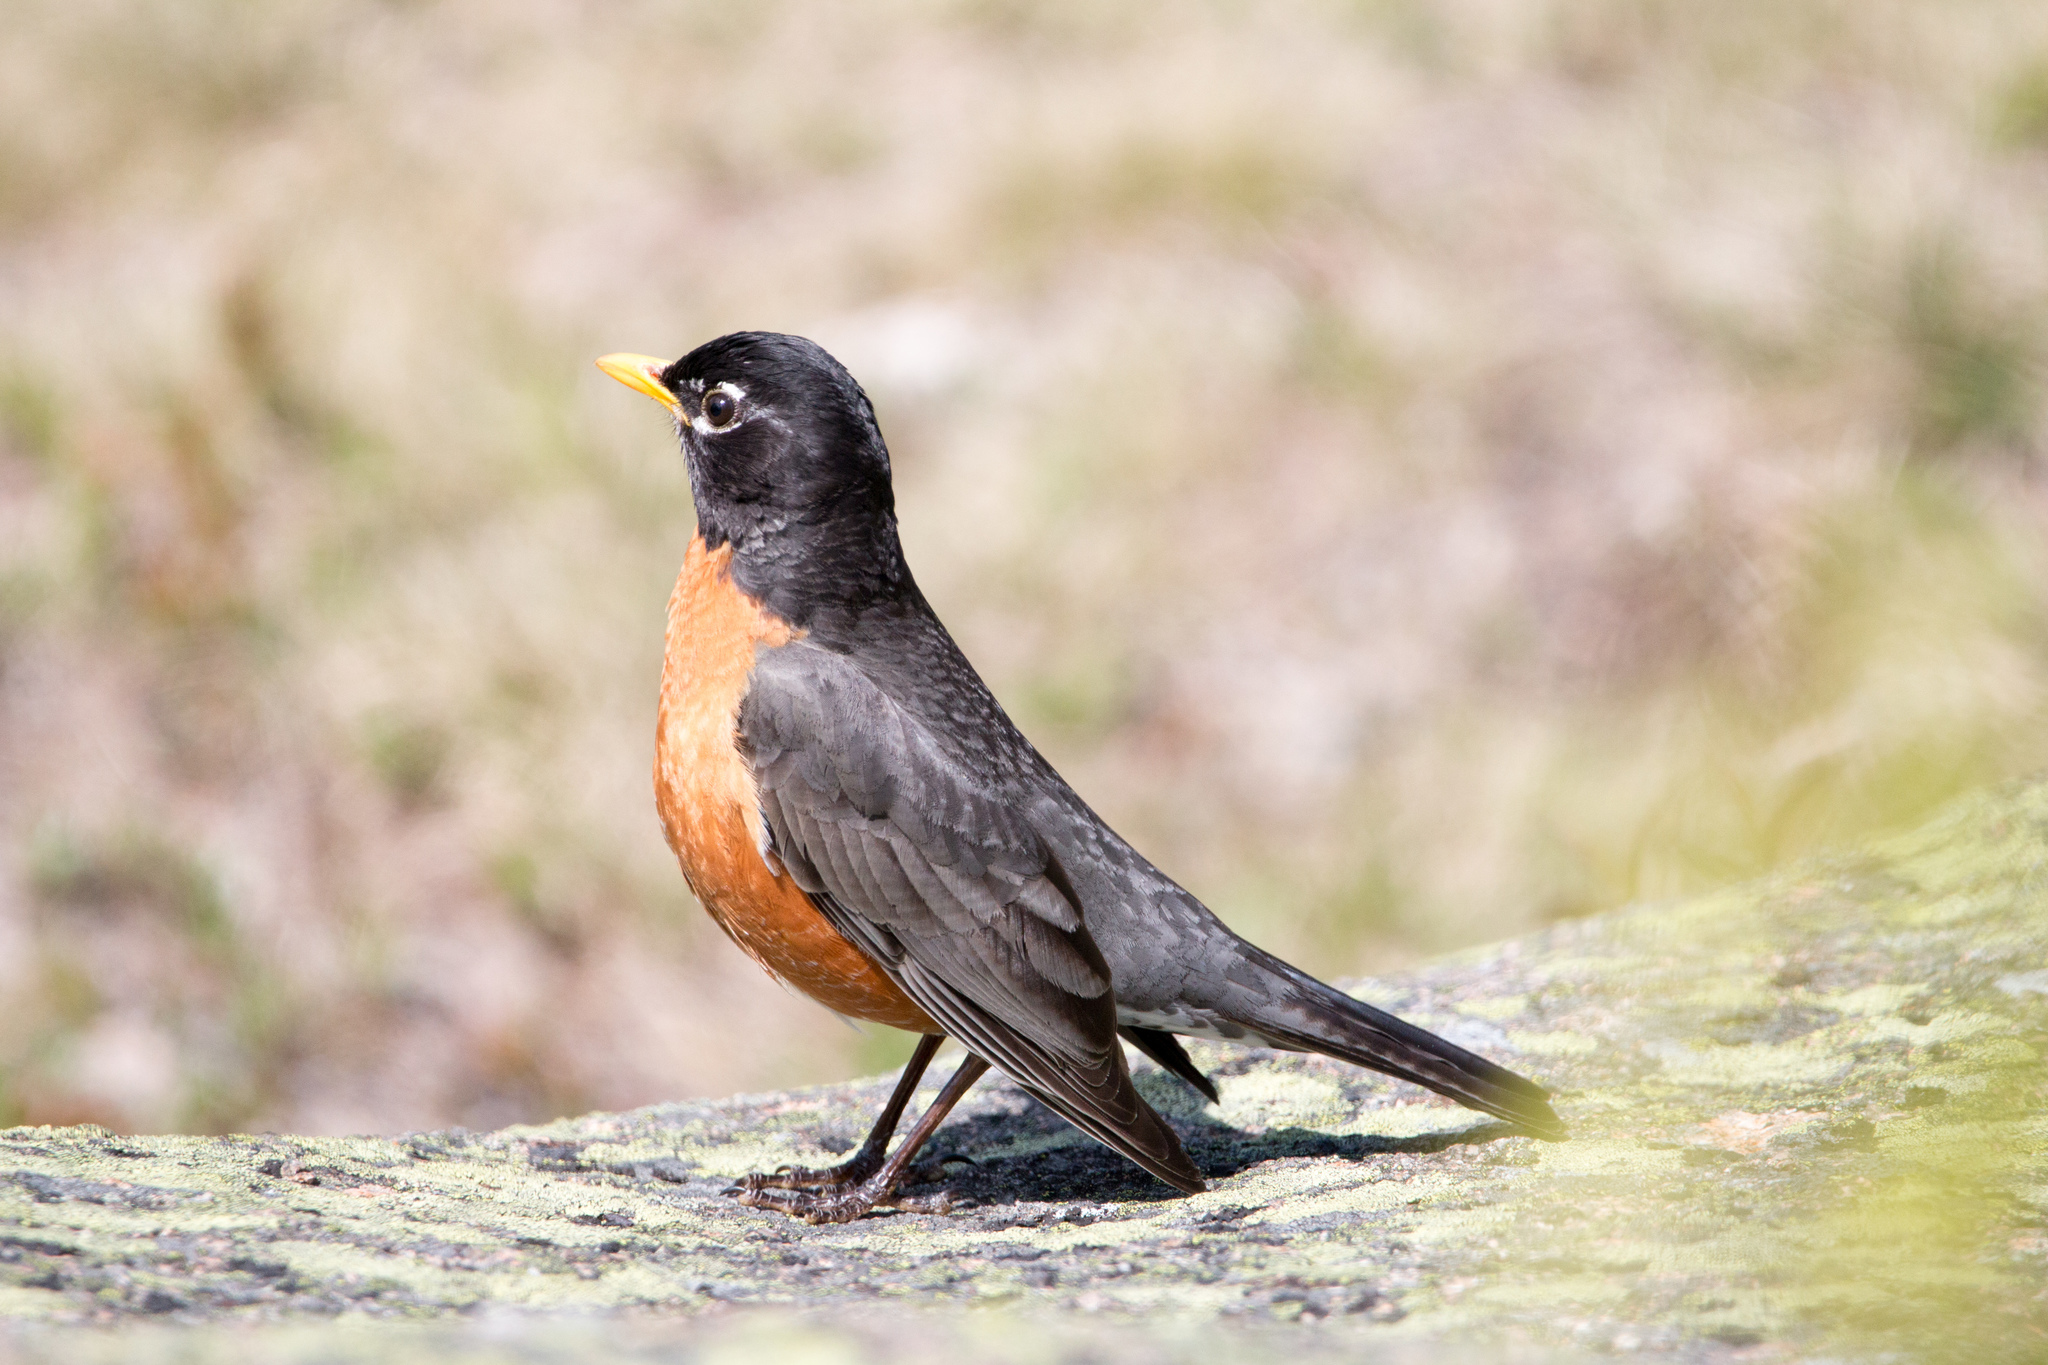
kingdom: Animalia
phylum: Chordata
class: Aves
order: Passeriformes
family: Turdidae
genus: Turdus
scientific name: Turdus migratorius
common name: American robin
